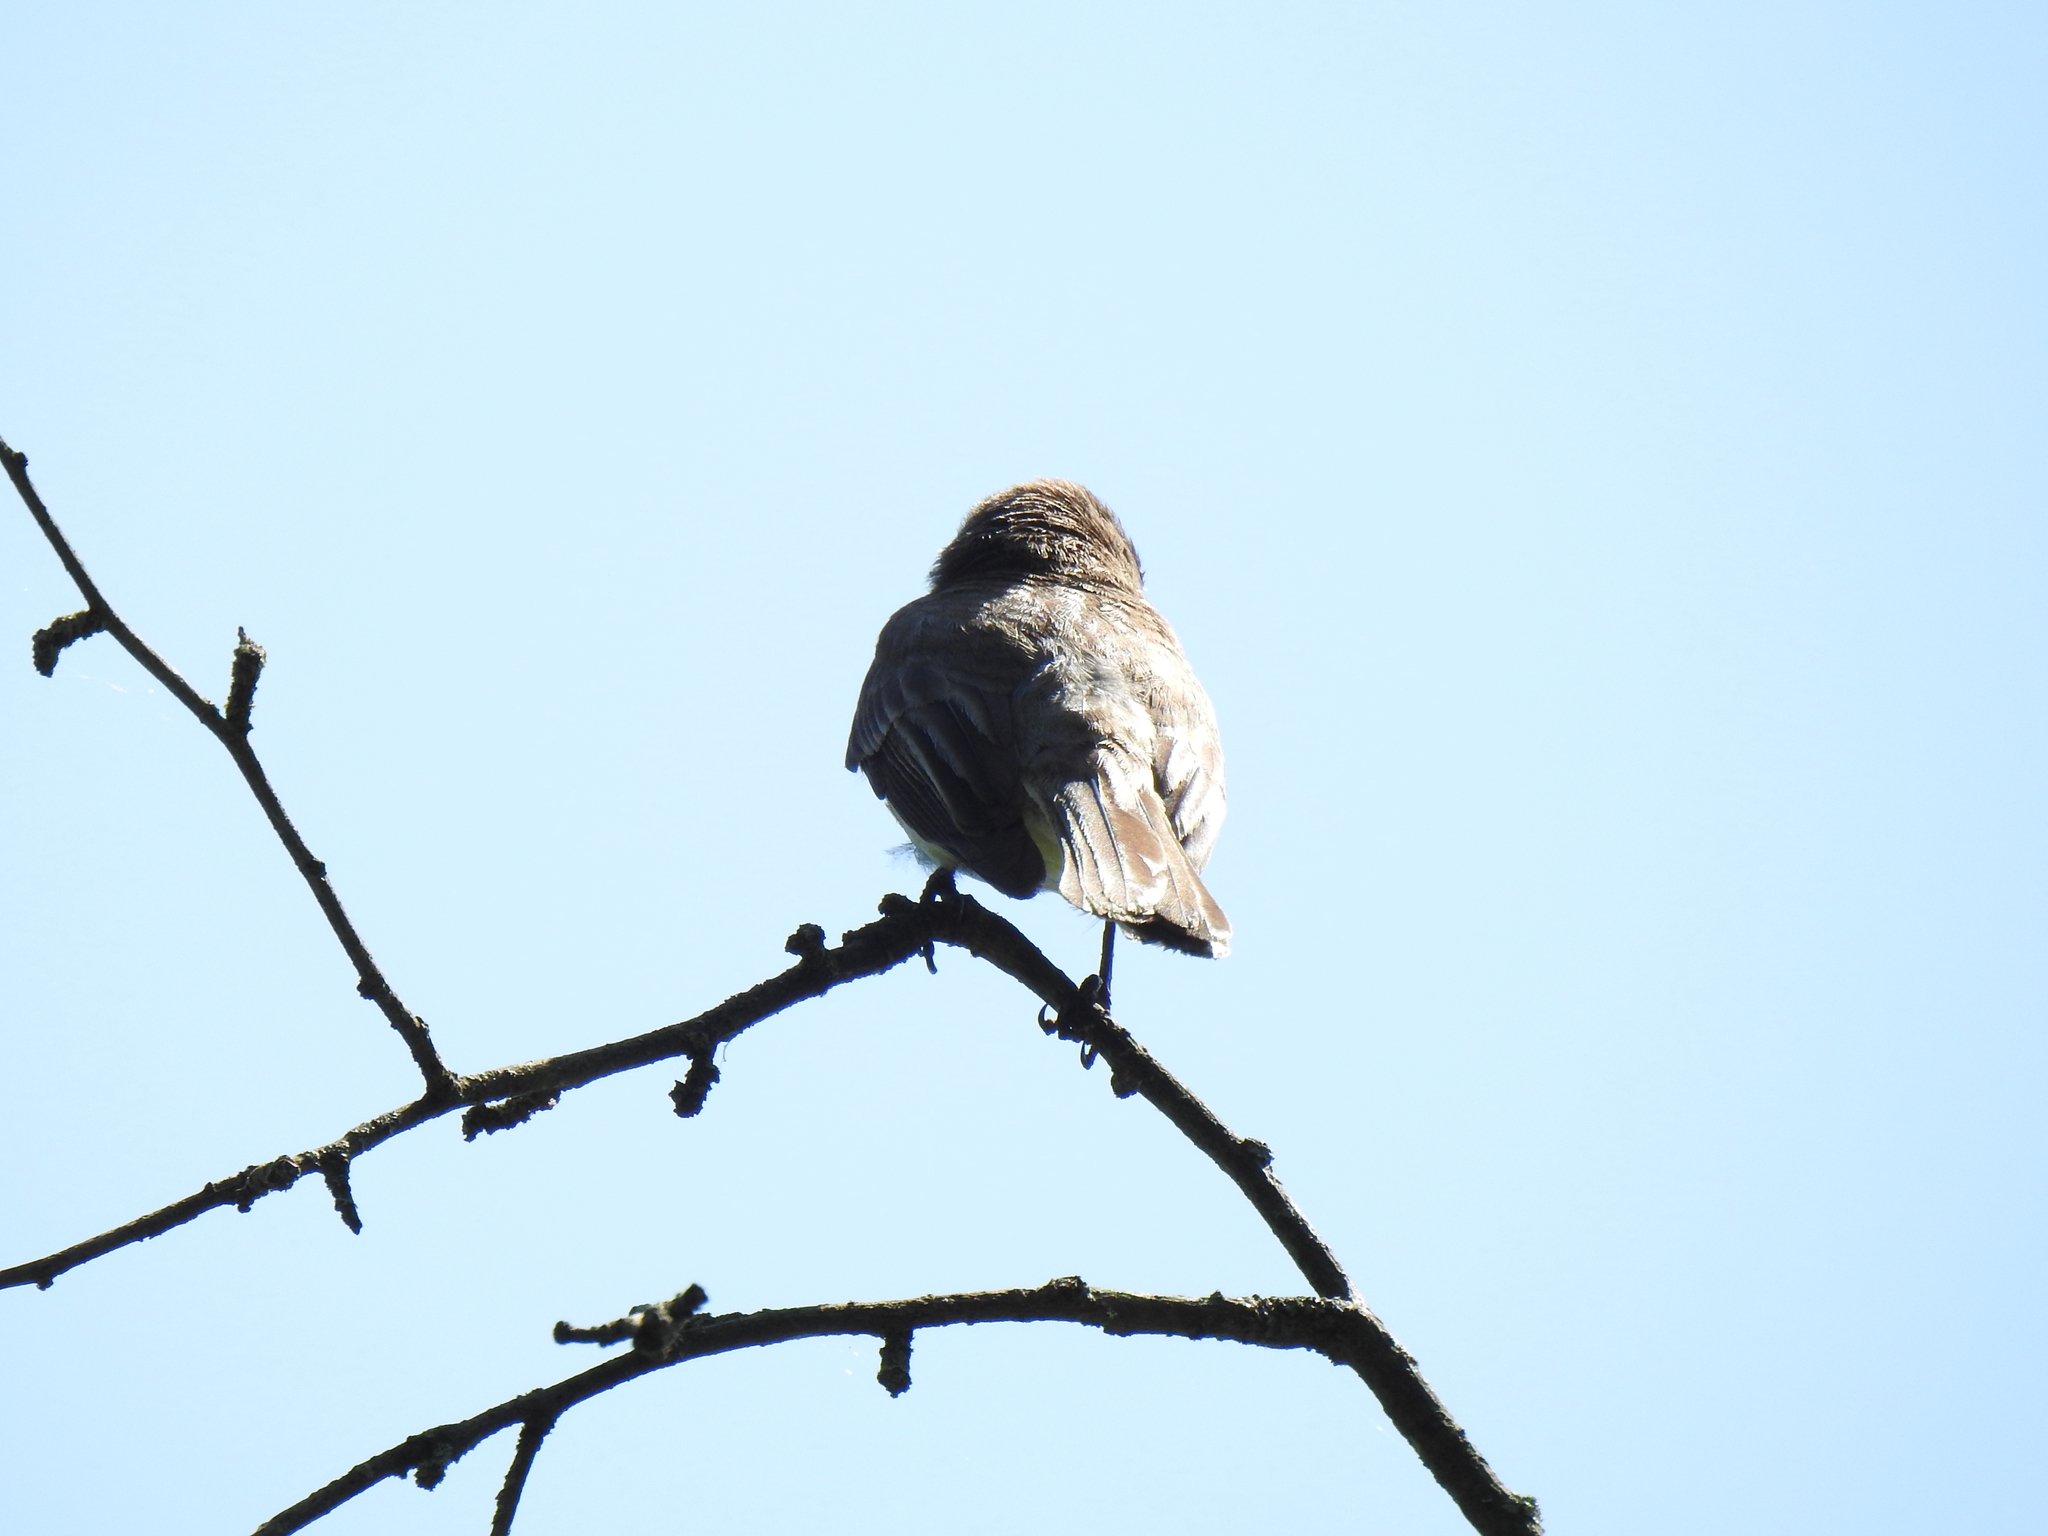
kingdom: Animalia
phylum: Chordata
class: Aves
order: Passeriformes
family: Tyrannidae
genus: Sayornis
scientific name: Sayornis phoebe
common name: Eastern phoebe
